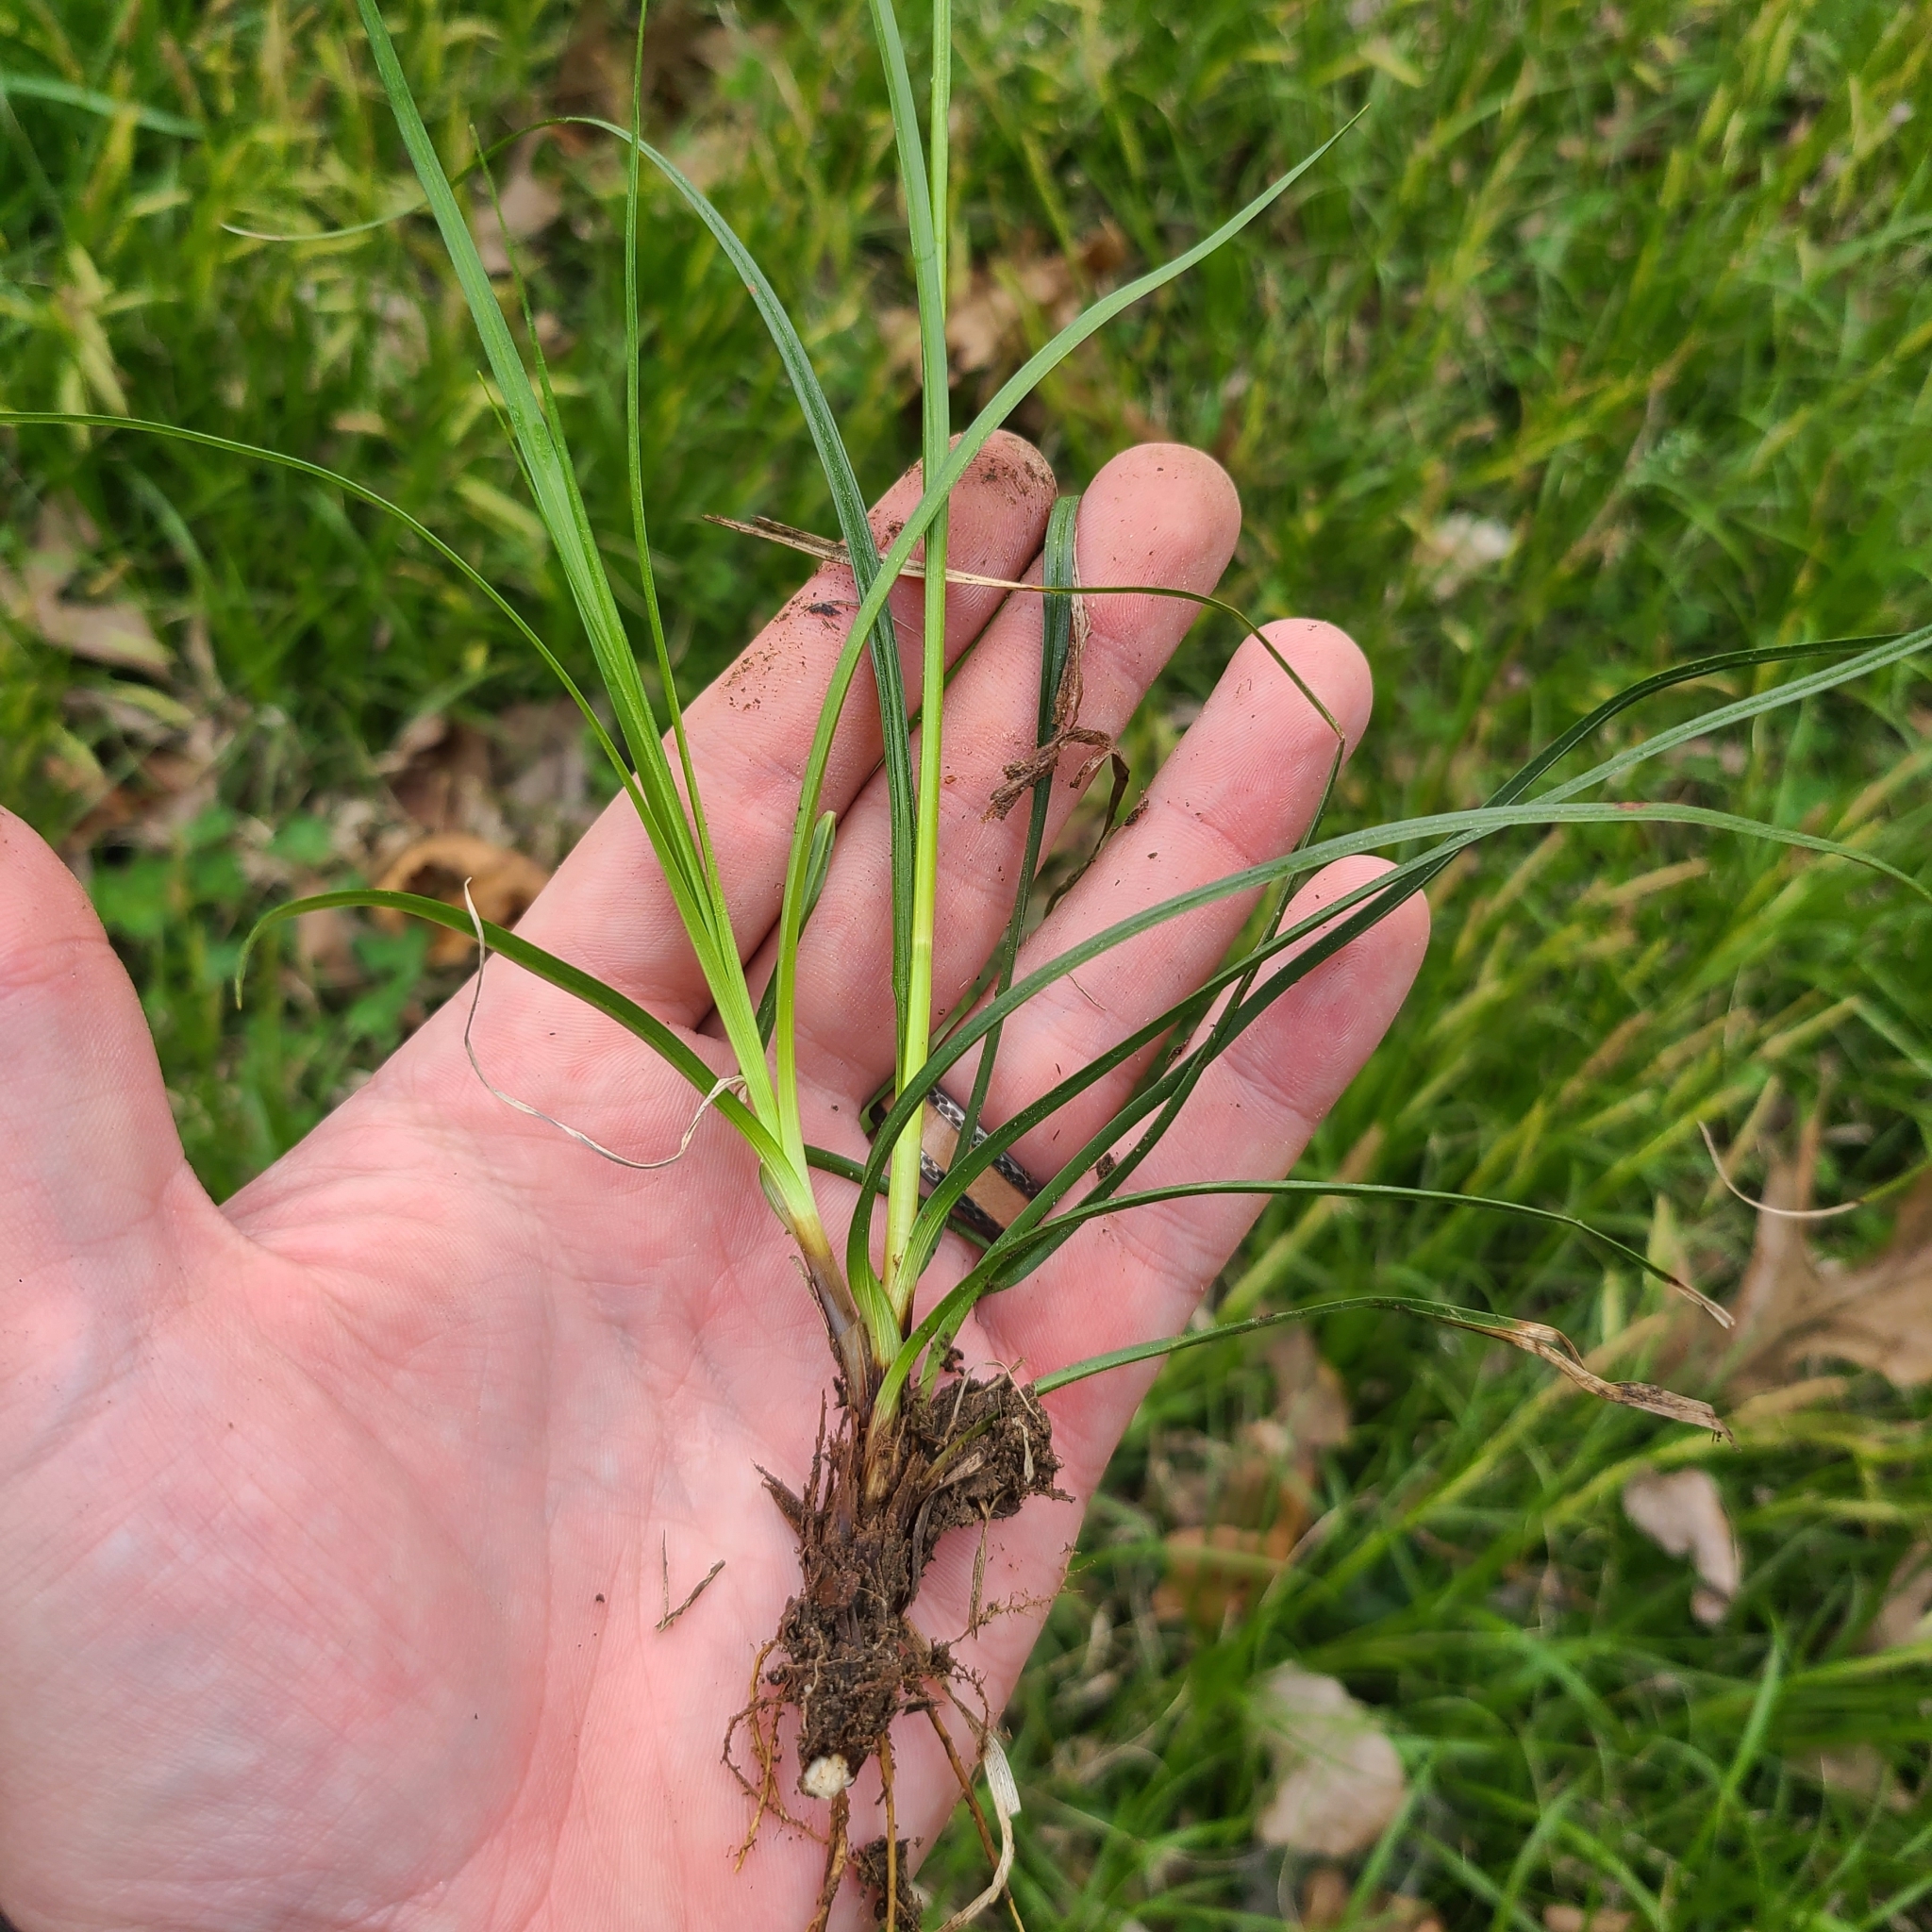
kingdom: Plantae
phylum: Tracheophyta
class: Liliopsida
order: Poales
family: Cyperaceae
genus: Carex
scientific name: Carex cherokeensis
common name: Cherokee sedge
